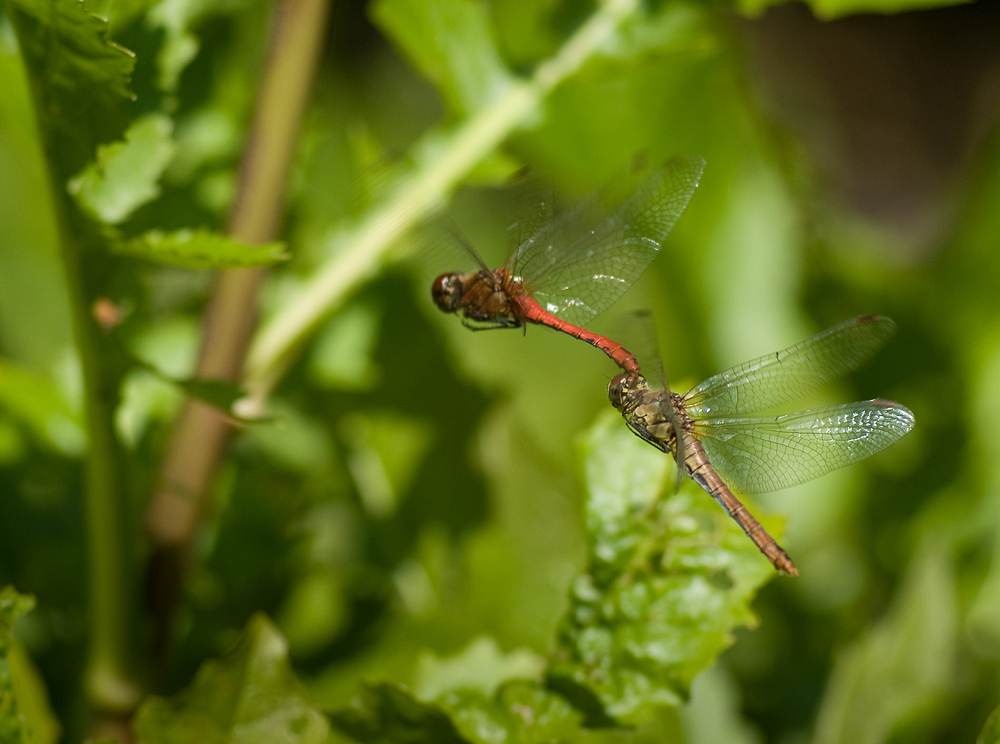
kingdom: Animalia
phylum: Arthropoda
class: Insecta
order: Odonata
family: Libellulidae
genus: Sympetrum
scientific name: Sympetrum sanguineum
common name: Ruddy darter
